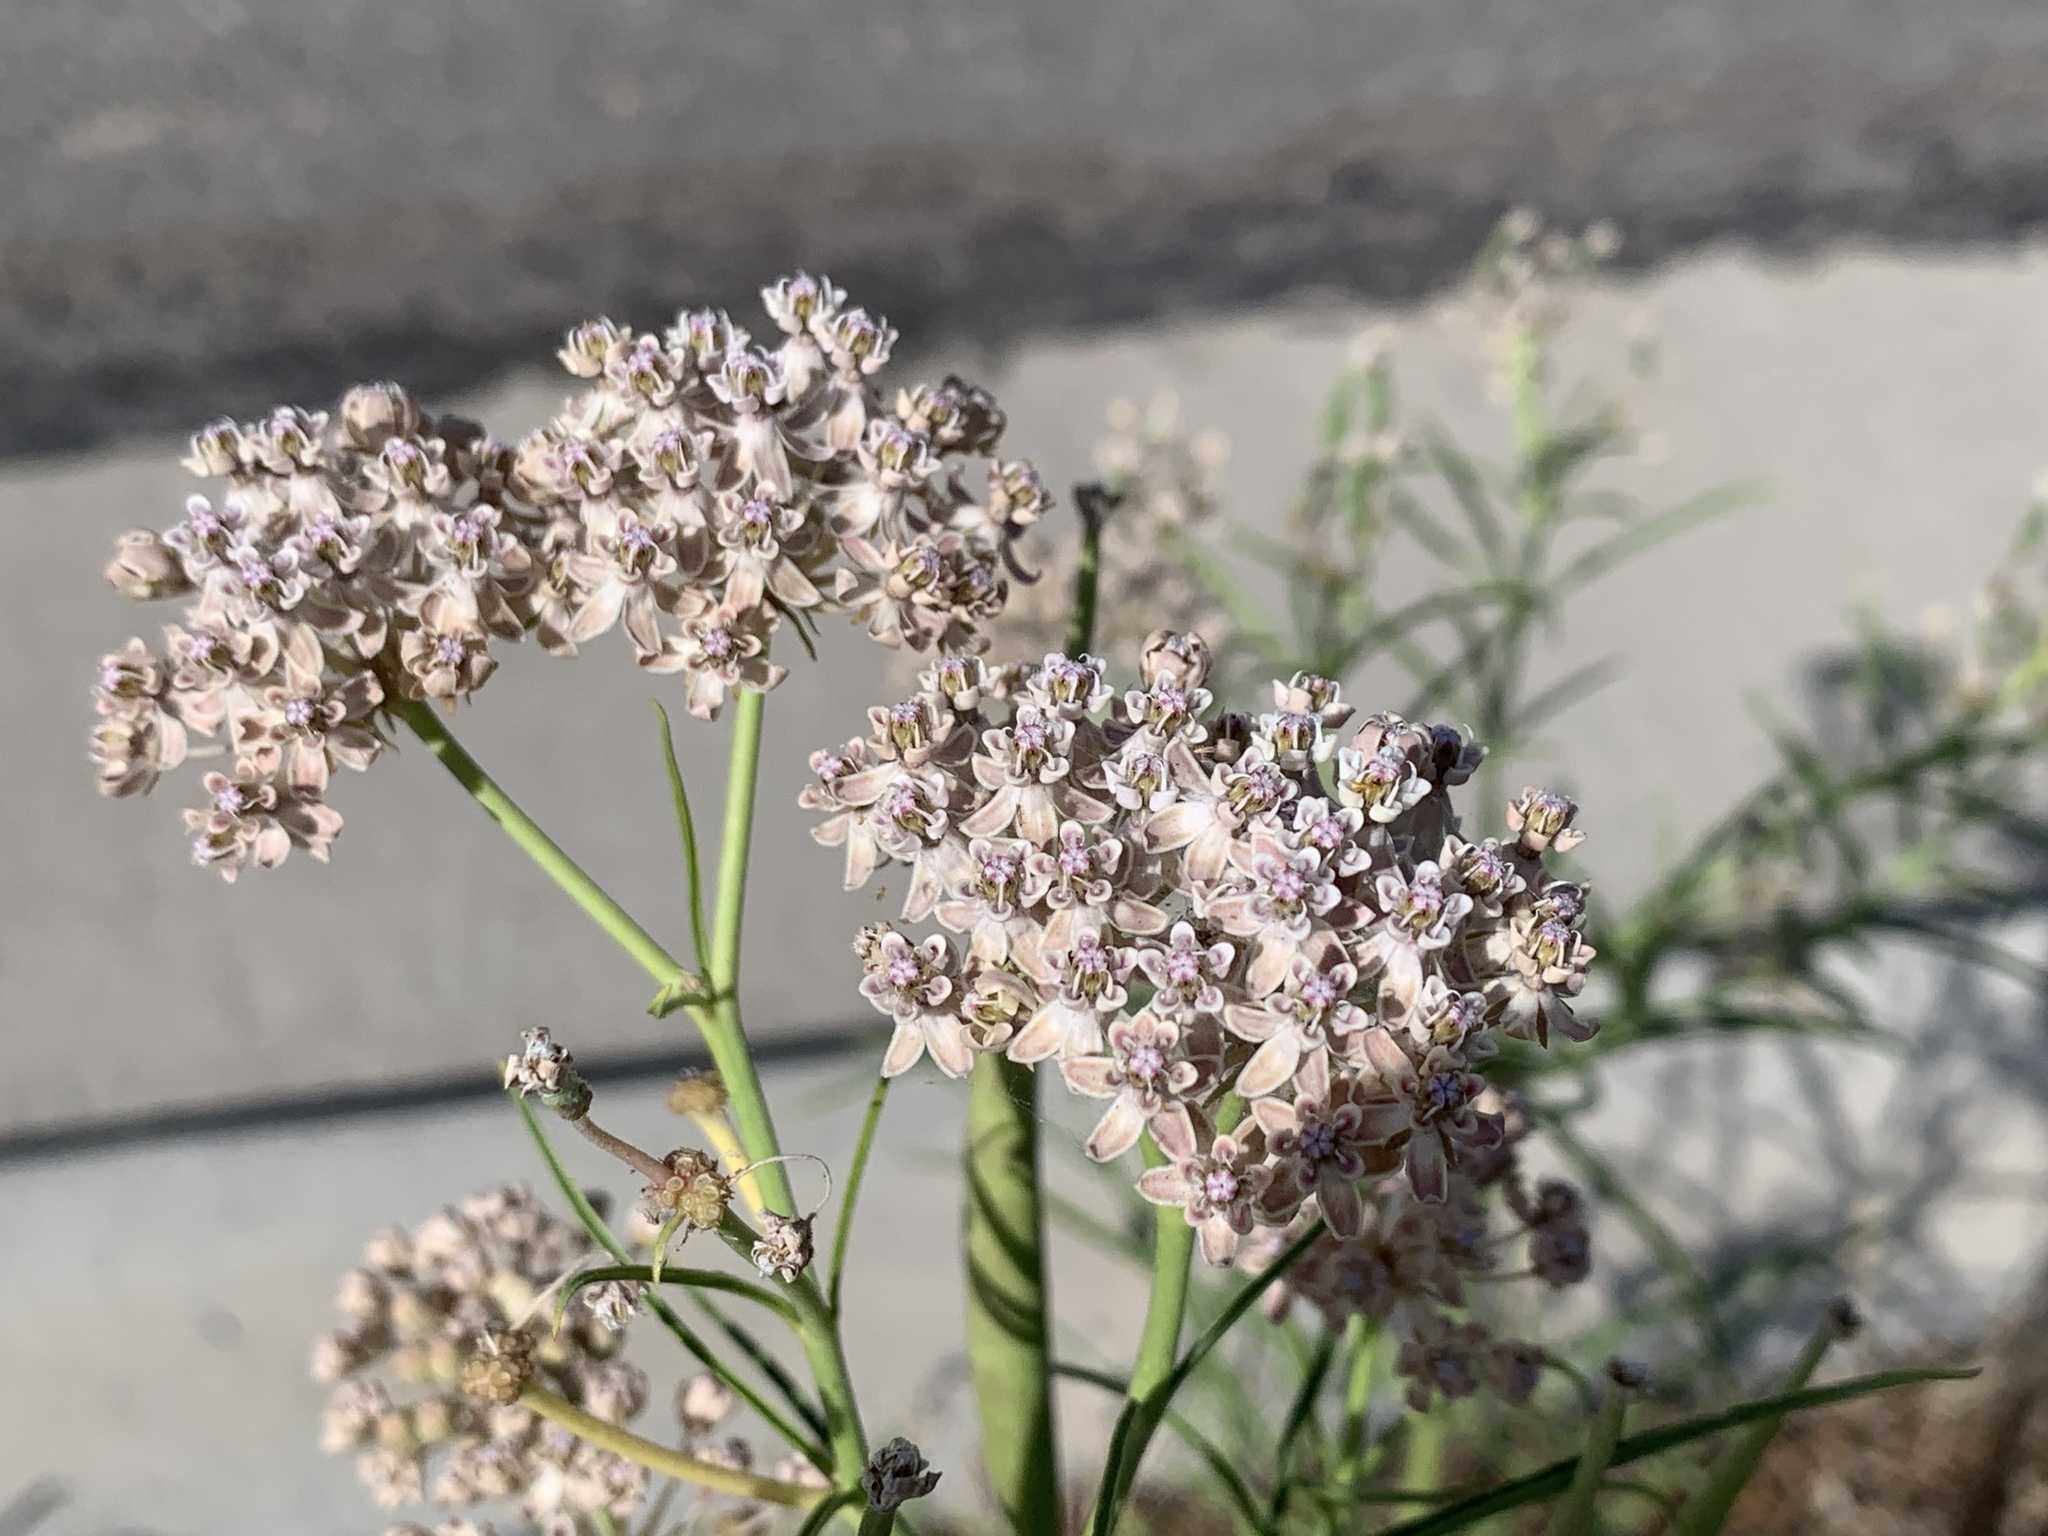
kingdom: Plantae
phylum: Tracheophyta
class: Magnoliopsida
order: Gentianales
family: Apocynaceae
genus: Asclepias
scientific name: Asclepias fascicularis
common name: Mexican milkweed
